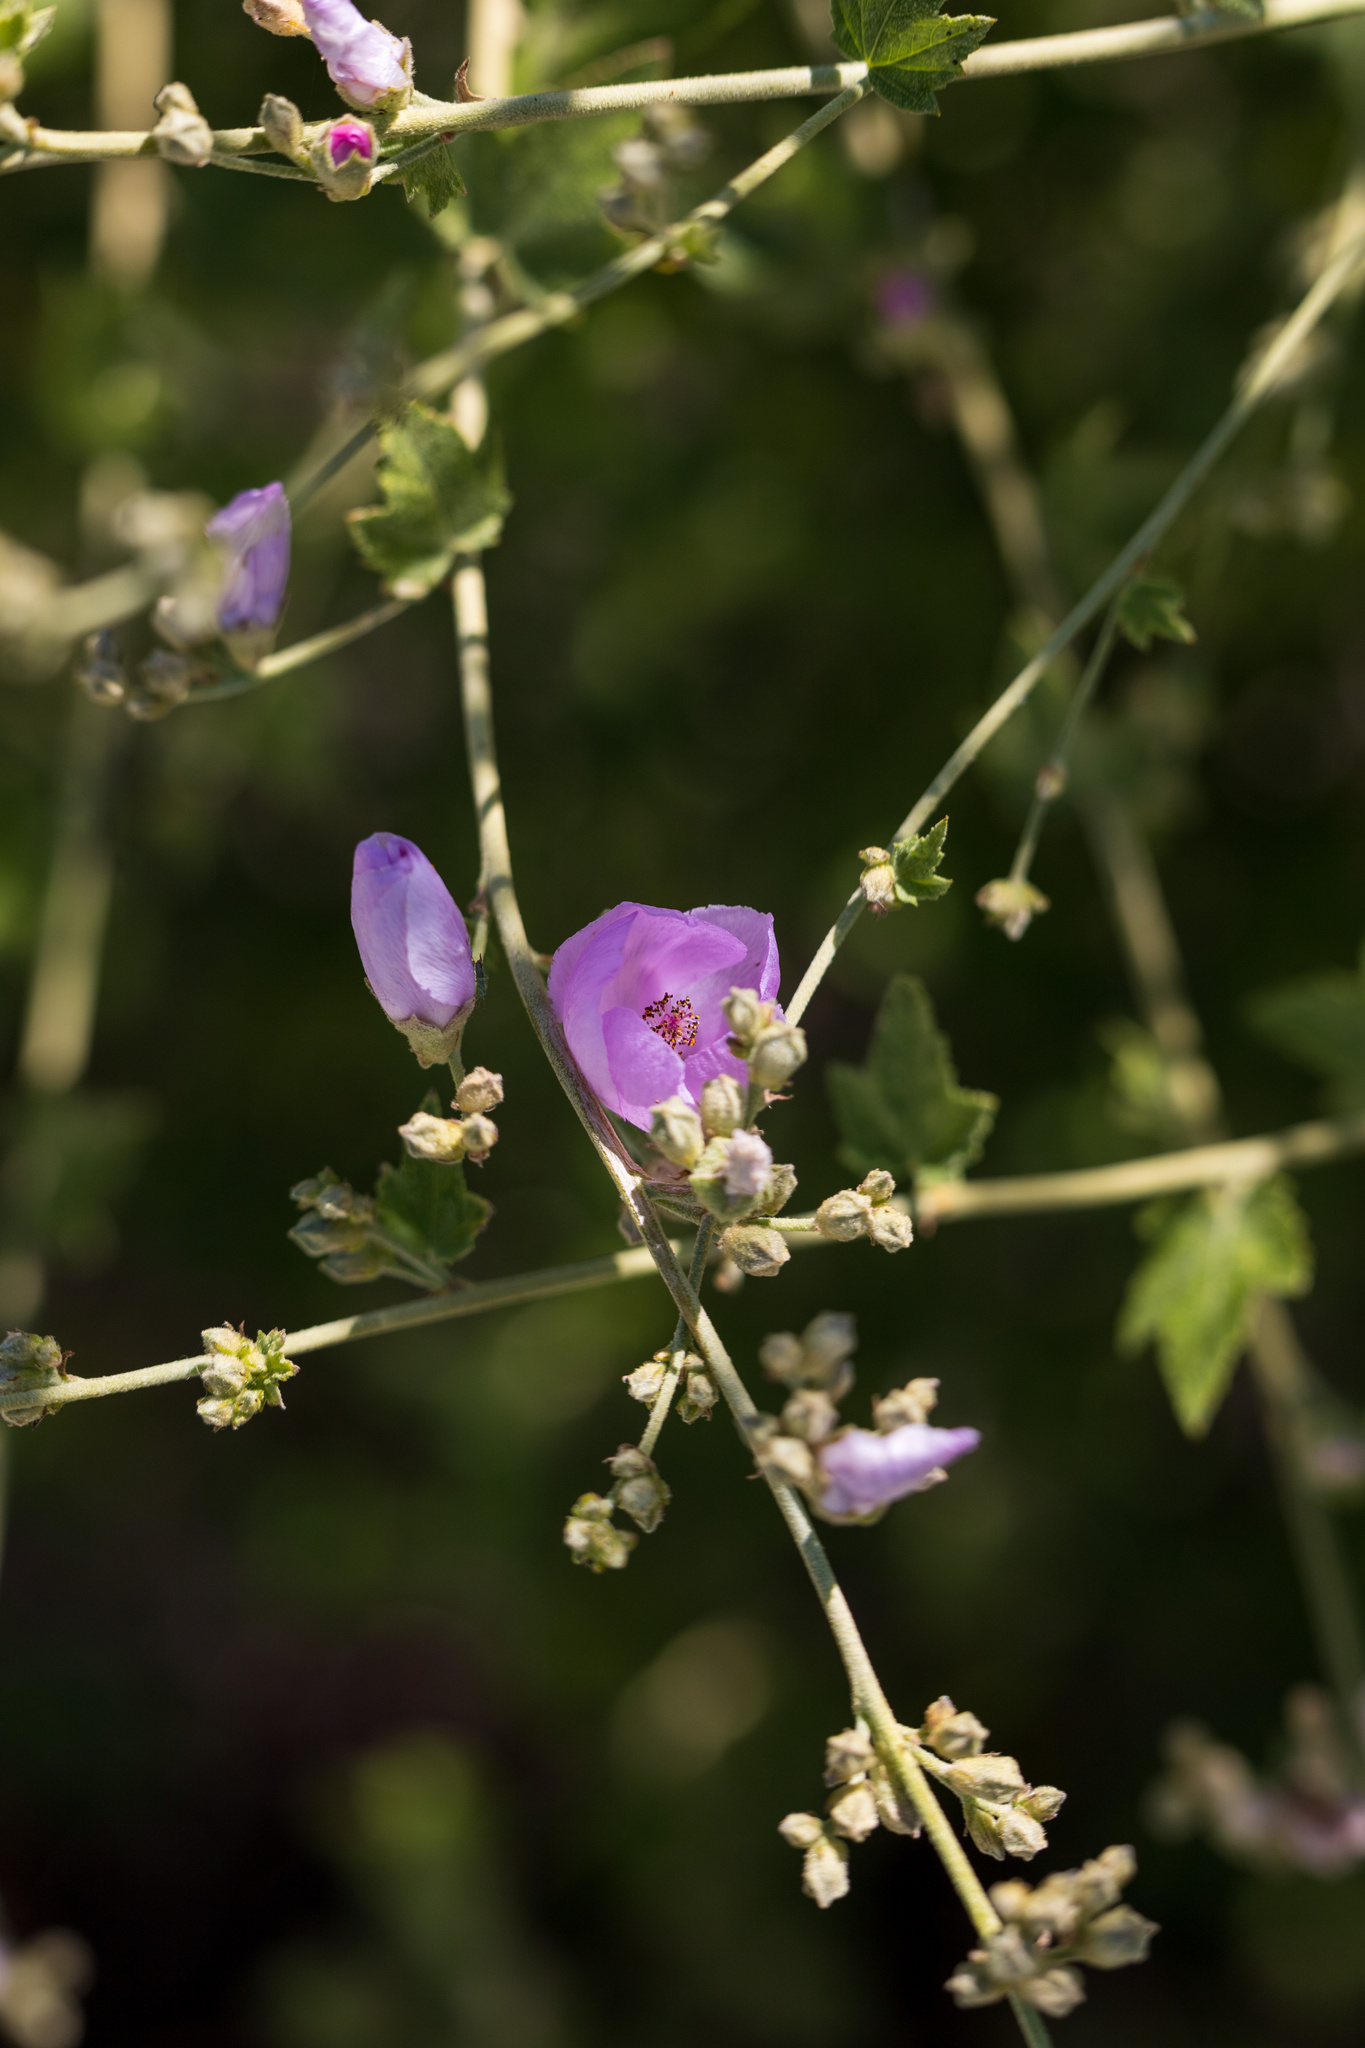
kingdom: Plantae
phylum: Tracheophyta
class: Magnoliopsida
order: Malvales
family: Malvaceae
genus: Malacothamnus
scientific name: Malacothamnus fasciculatus
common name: Sant cruz island bush-mallow
